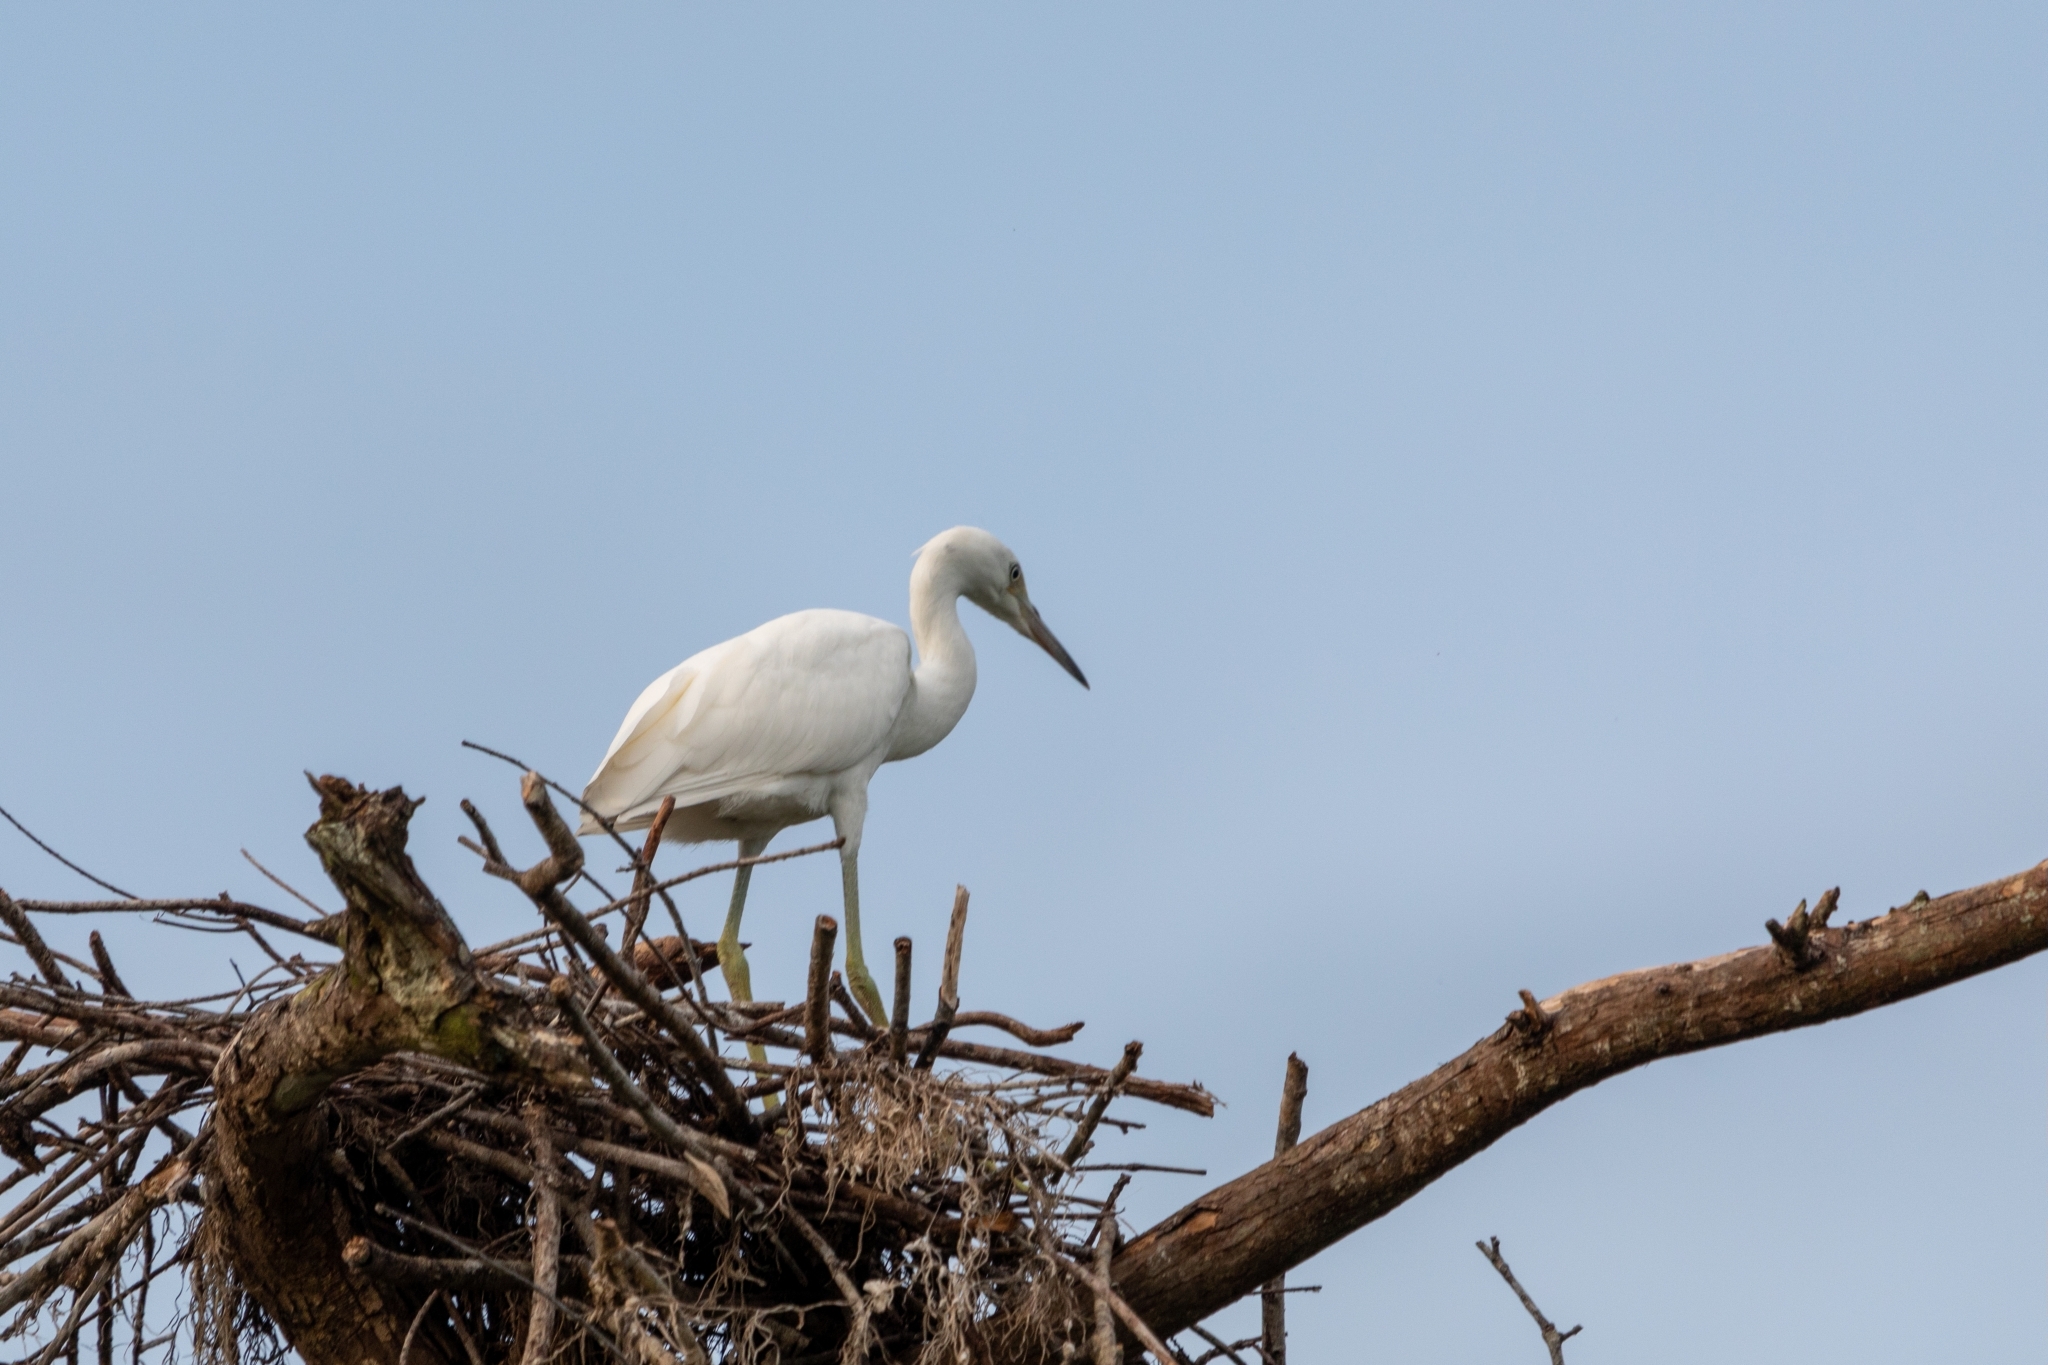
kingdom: Animalia
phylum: Chordata
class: Aves
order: Pelecaniformes
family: Ardeidae
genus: Egretta
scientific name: Egretta caerulea
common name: Little blue heron
